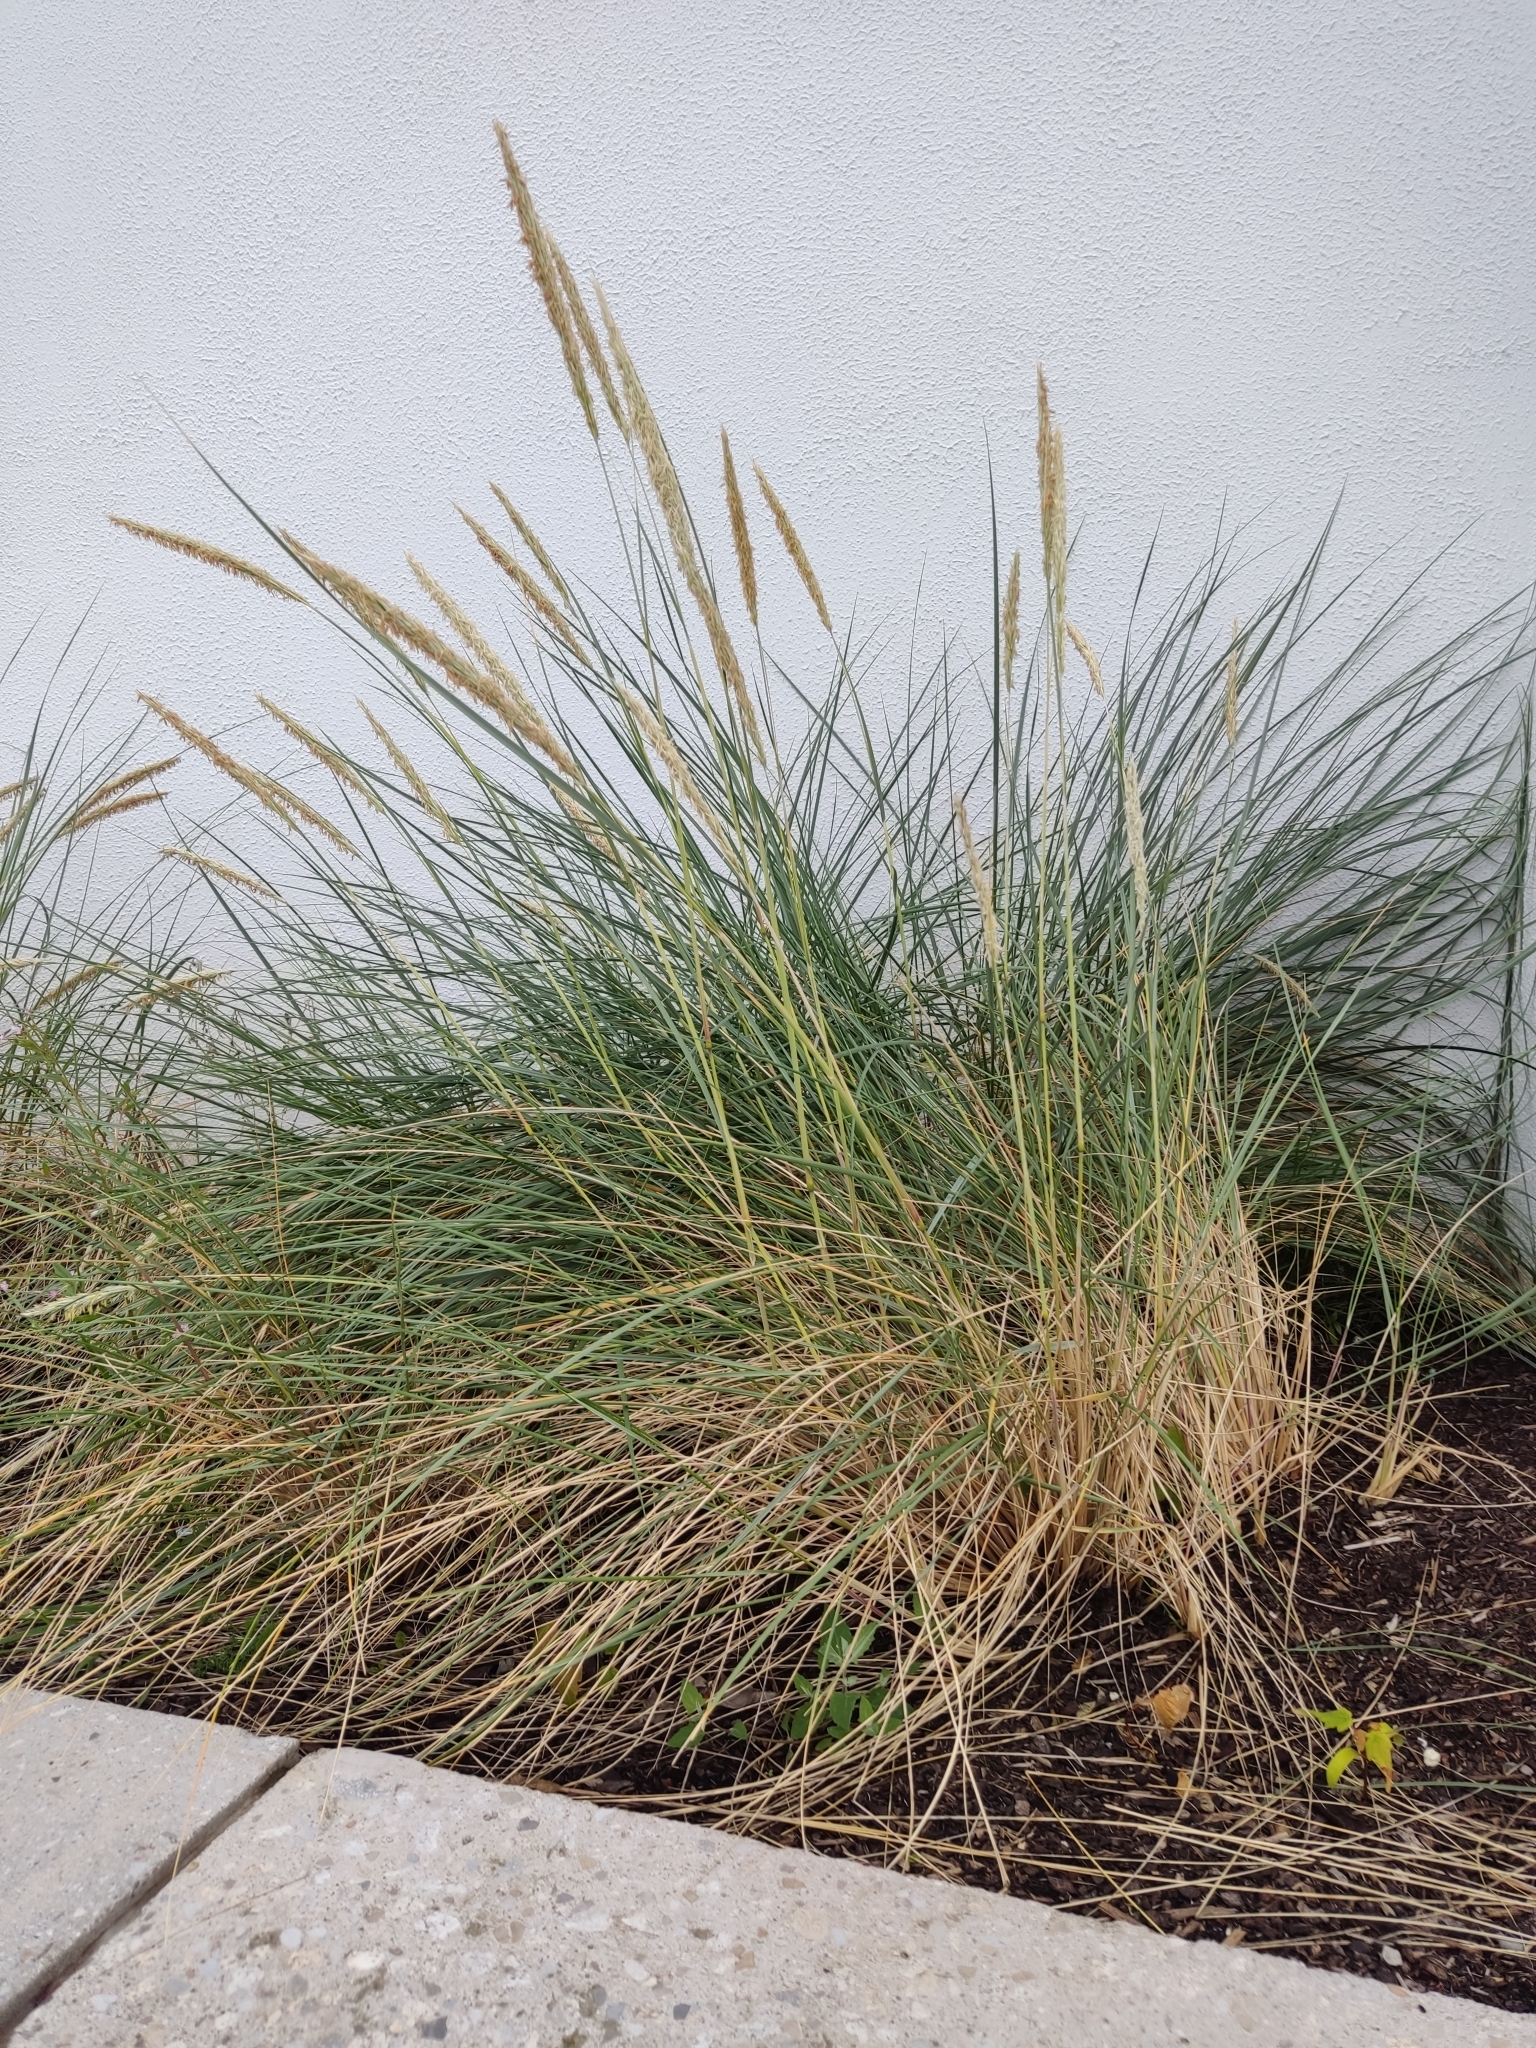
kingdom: Plantae
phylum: Tracheophyta
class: Liliopsida
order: Poales
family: Poaceae
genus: Calamagrostis
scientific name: Calamagrostis arenaria
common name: European beachgrass
